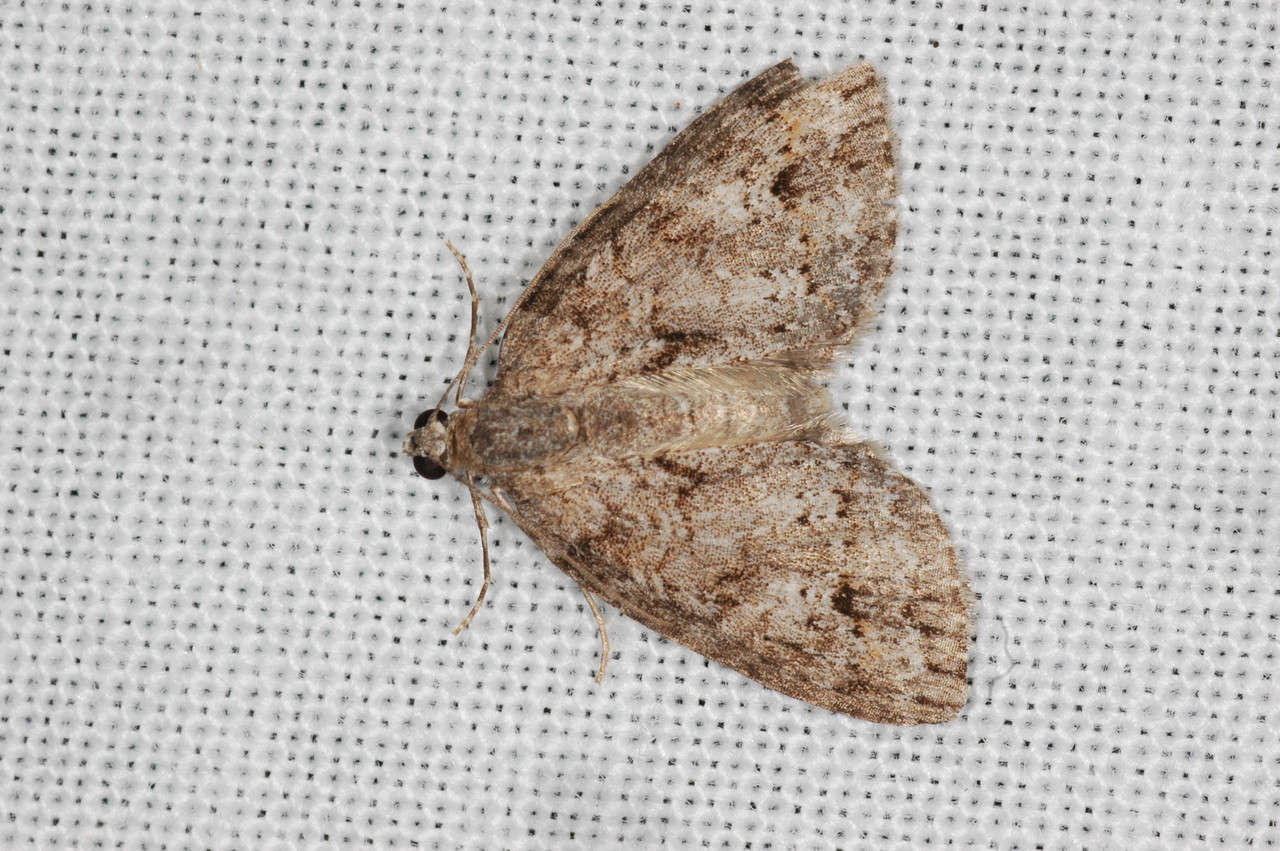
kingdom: Animalia
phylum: Arthropoda
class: Insecta
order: Lepidoptera
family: Geometridae
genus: Microdes
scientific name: Microdes villosata
